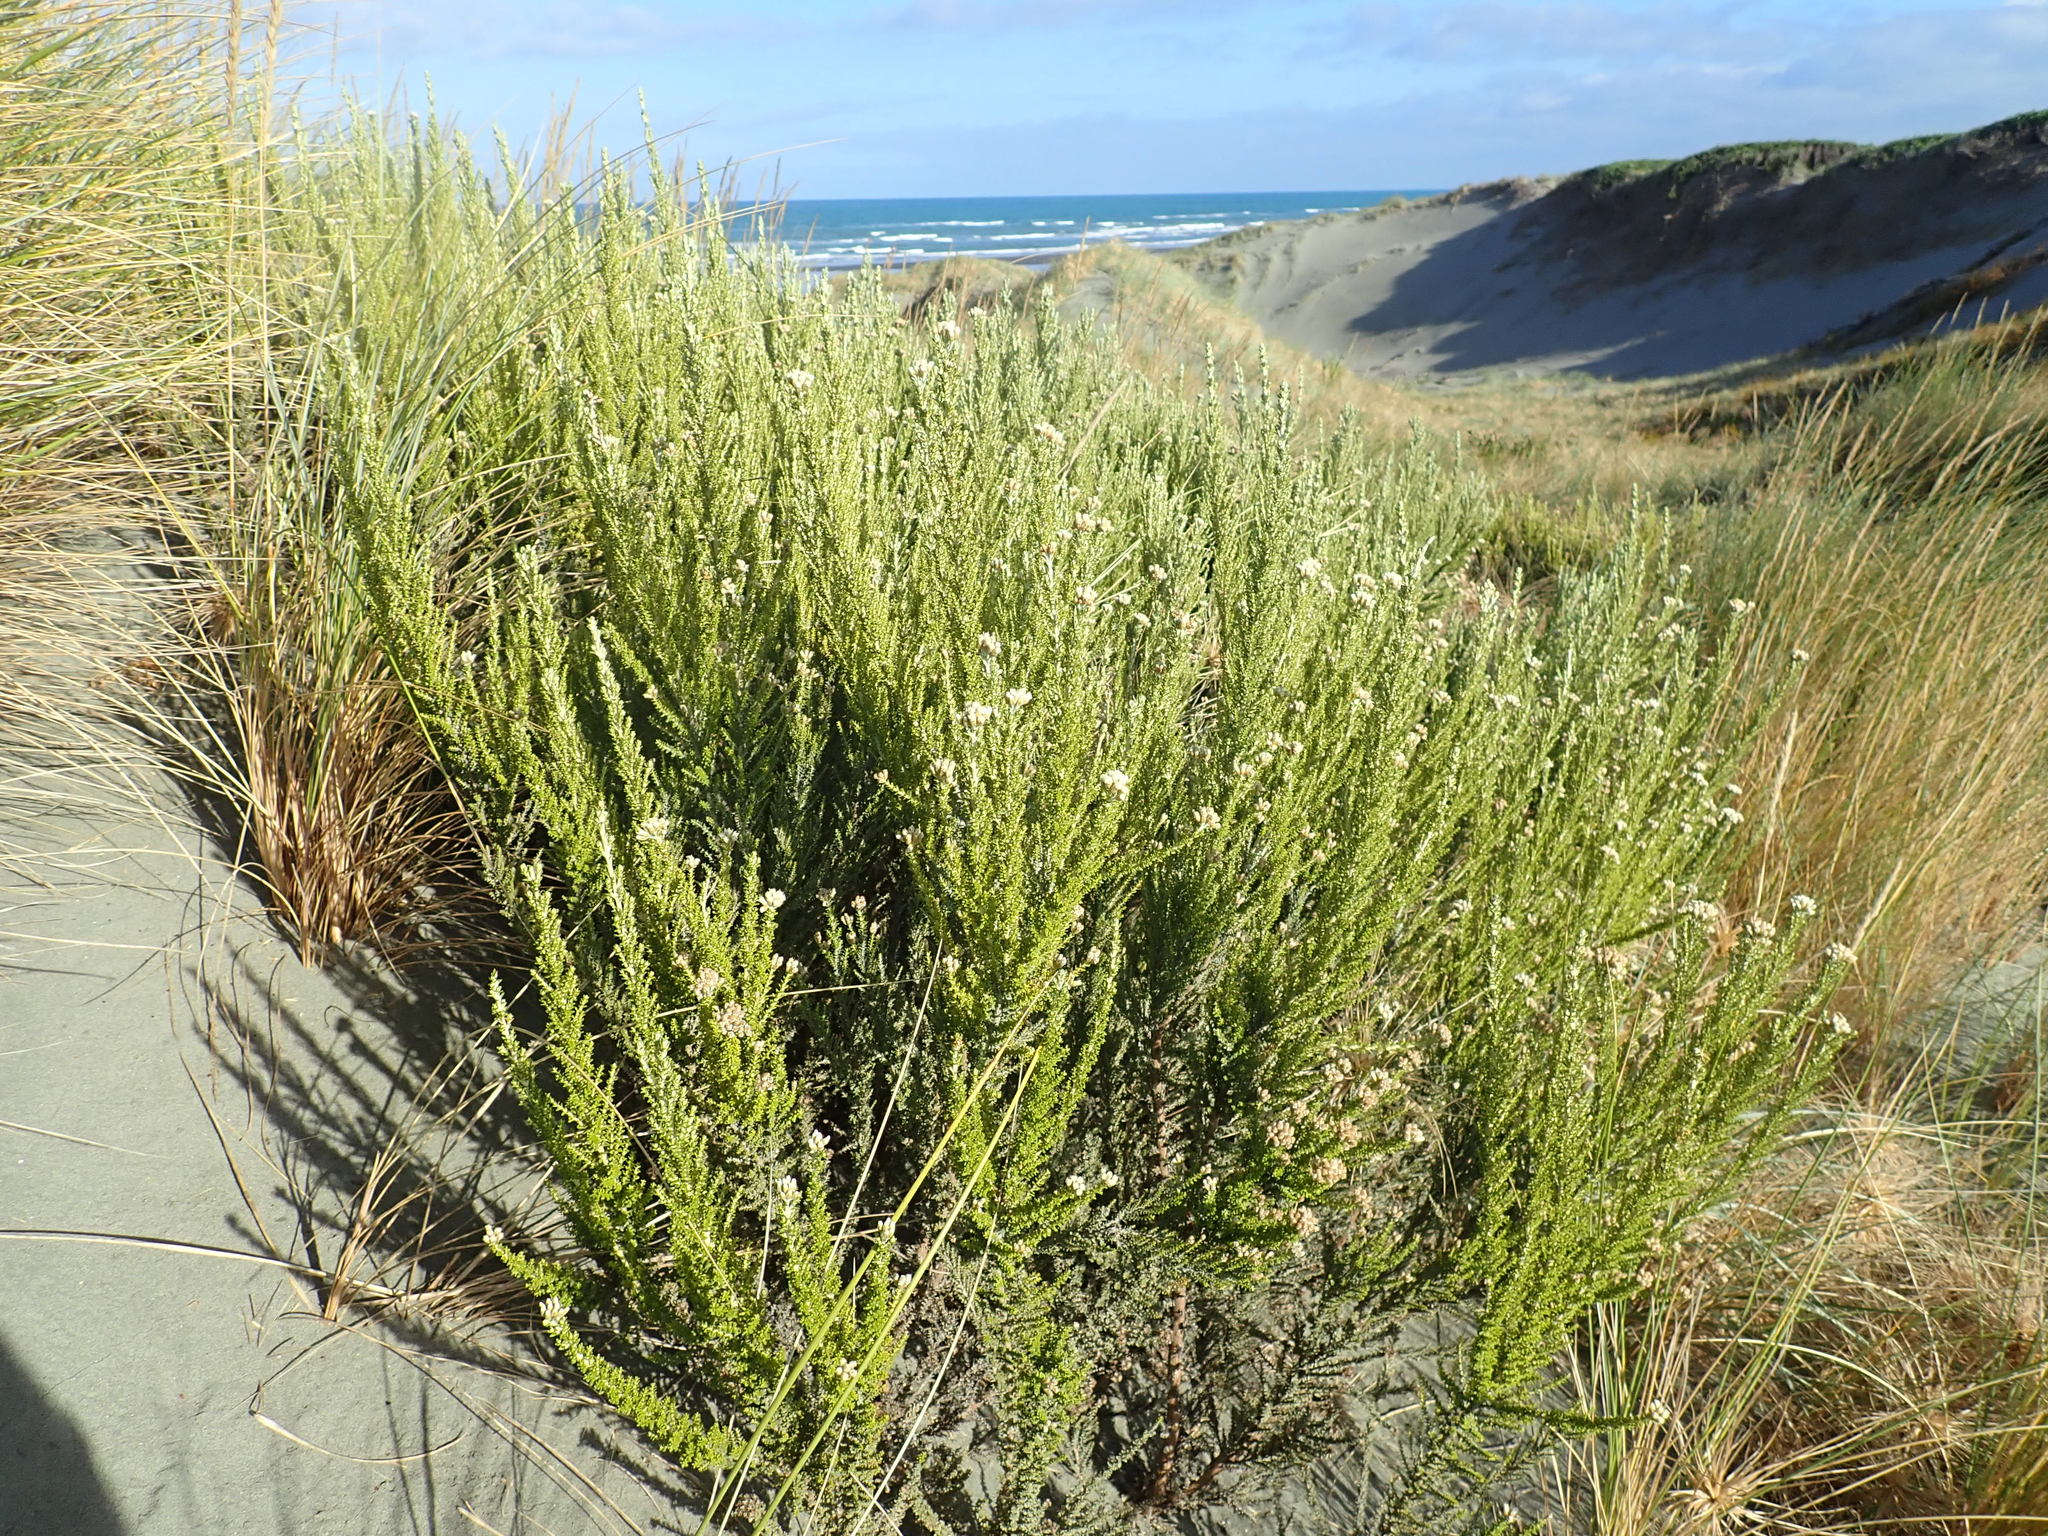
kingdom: Plantae
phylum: Tracheophyta
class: Magnoliopsida
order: Asterales
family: Asteraceae
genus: Ozothamnus
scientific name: Ozothamnus leptophyllus
